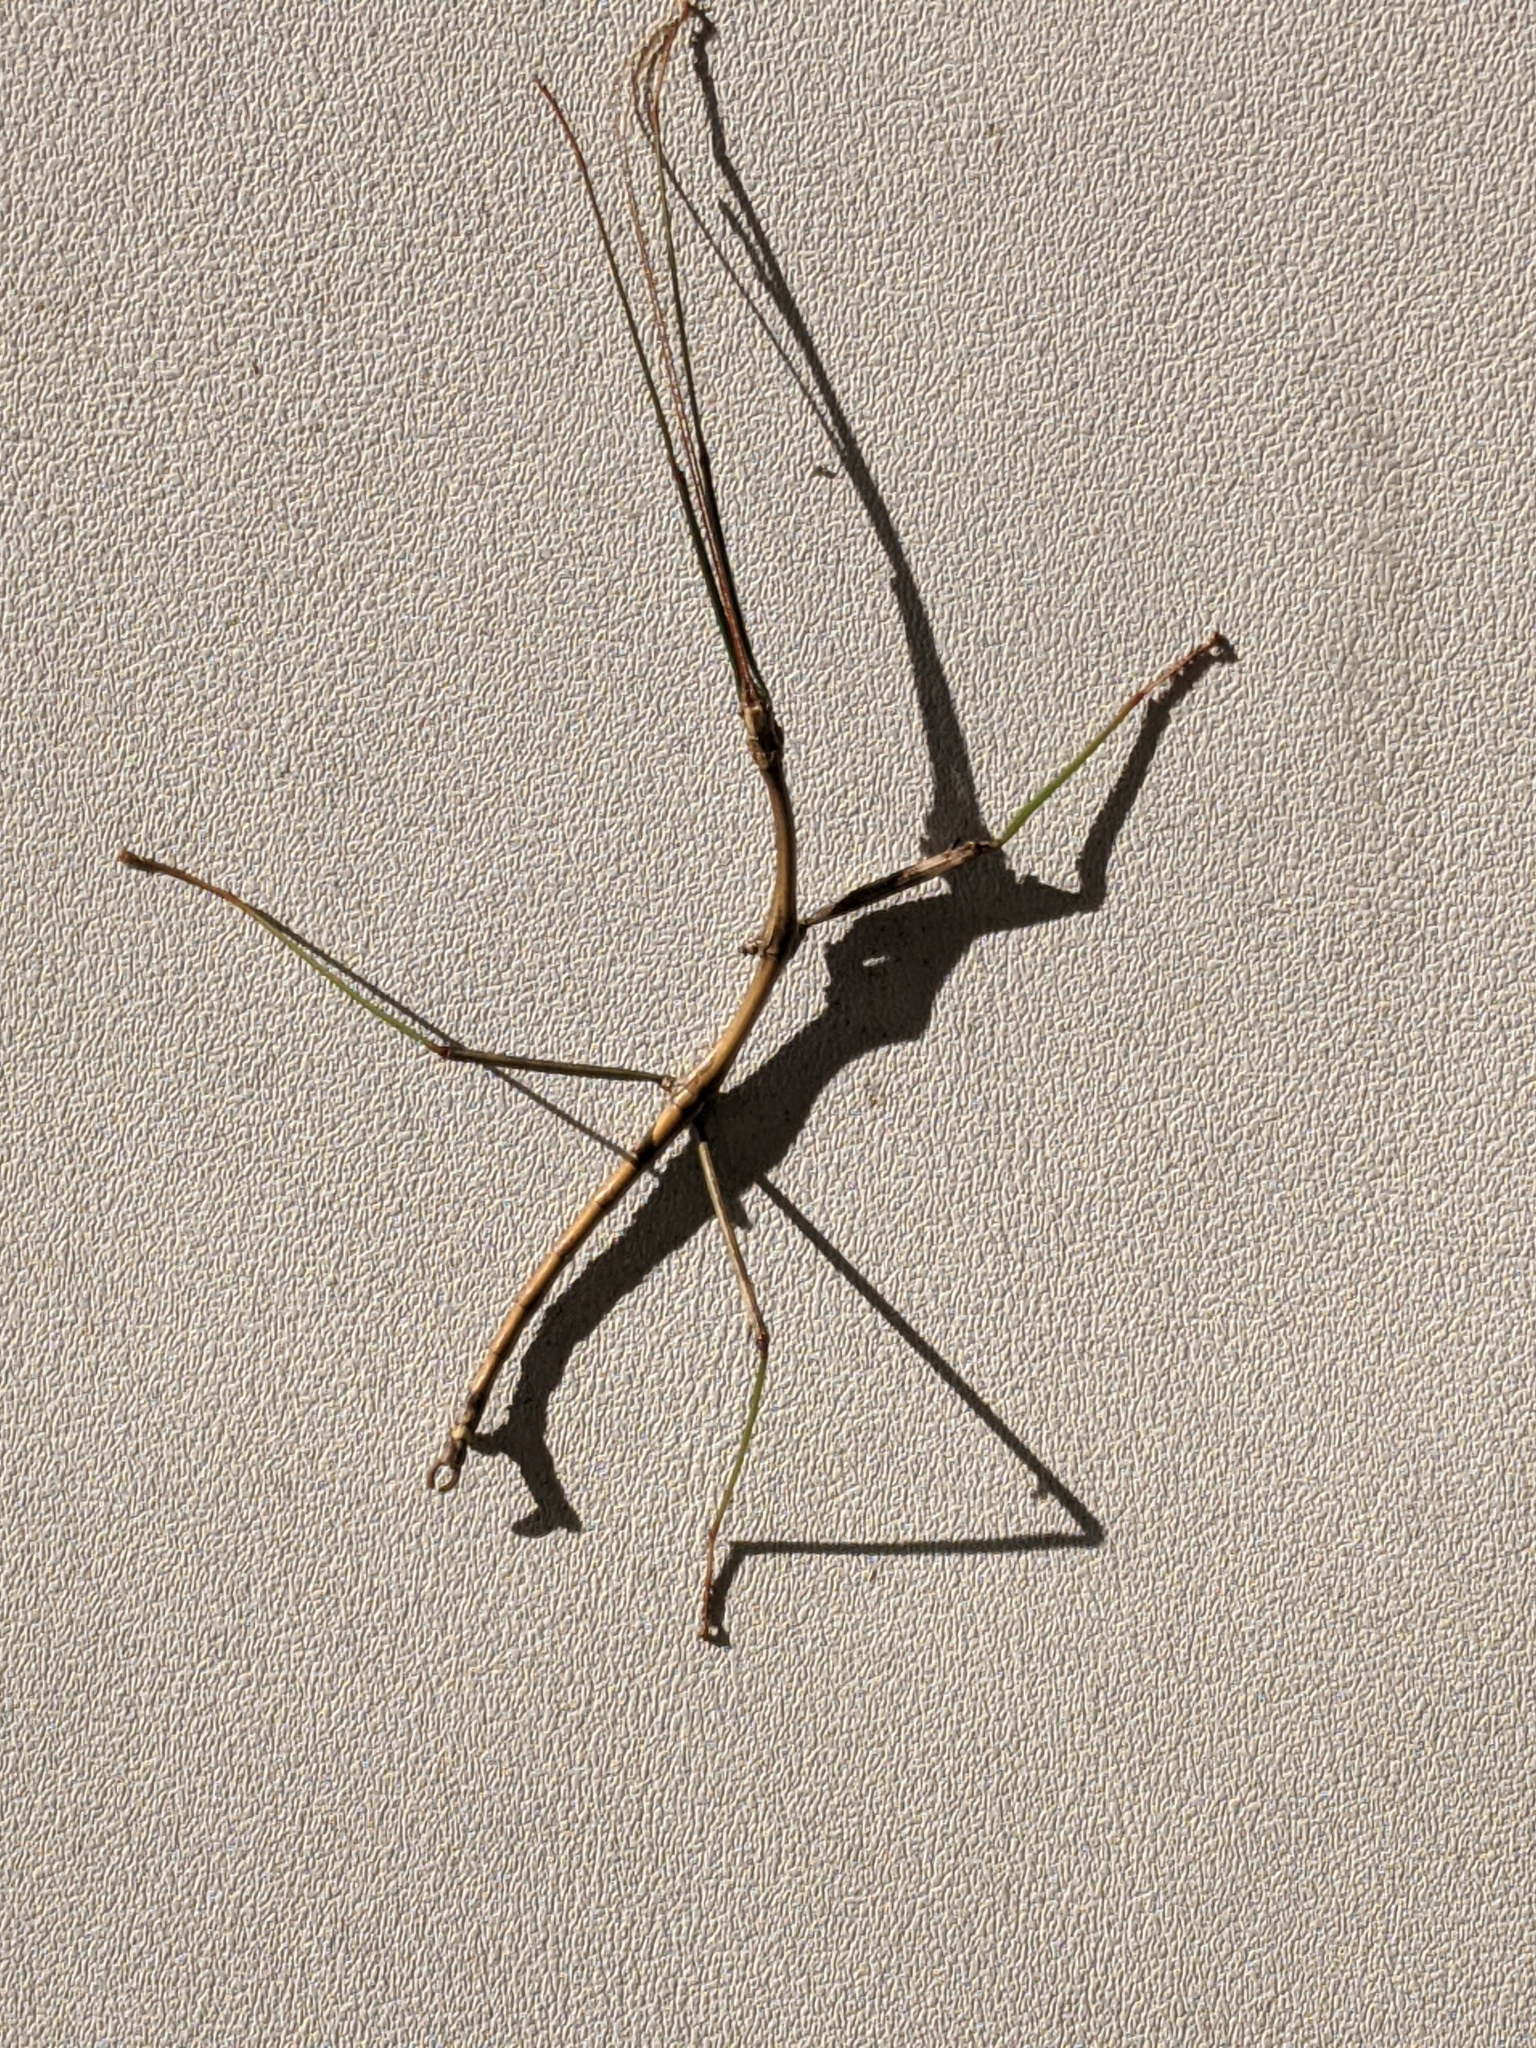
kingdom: Animalia
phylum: Arthropoda
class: Insecta
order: Phasmida
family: Diapheromeridae
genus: Diapheromera
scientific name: Diapheromera femorata
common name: Common american walkingstick
